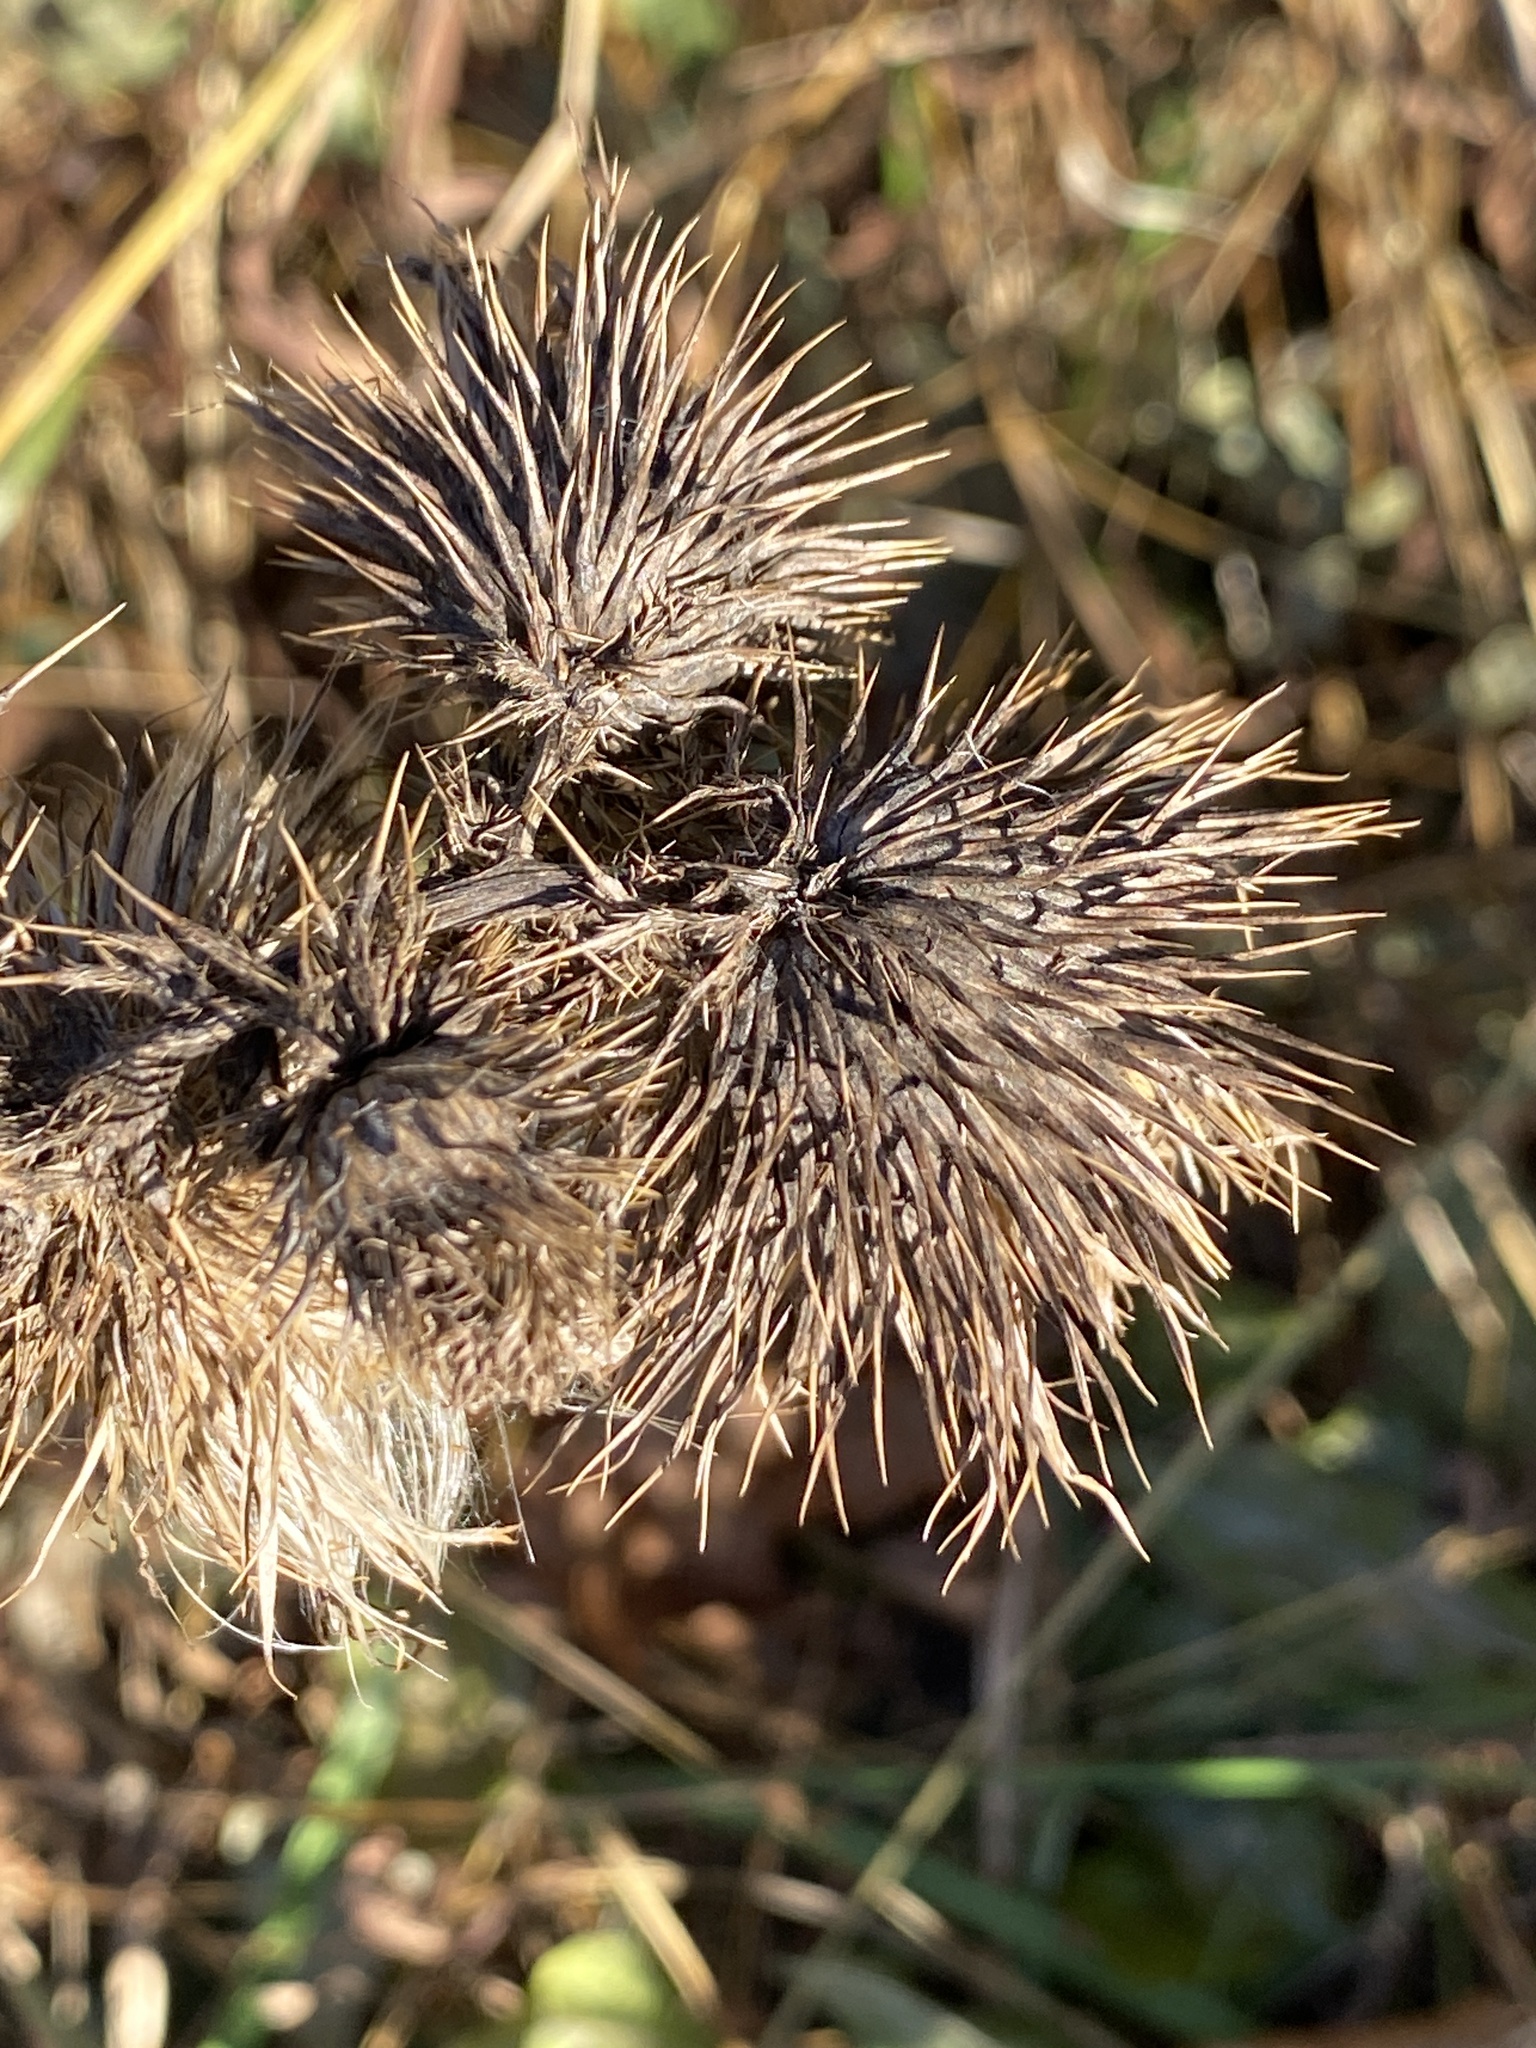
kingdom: Plantae
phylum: Tracheophyta
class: Magnoliopsida
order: Asterales
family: Asteraceae
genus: Cirsium
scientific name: Cirsium vulgare
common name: Bull thistle
